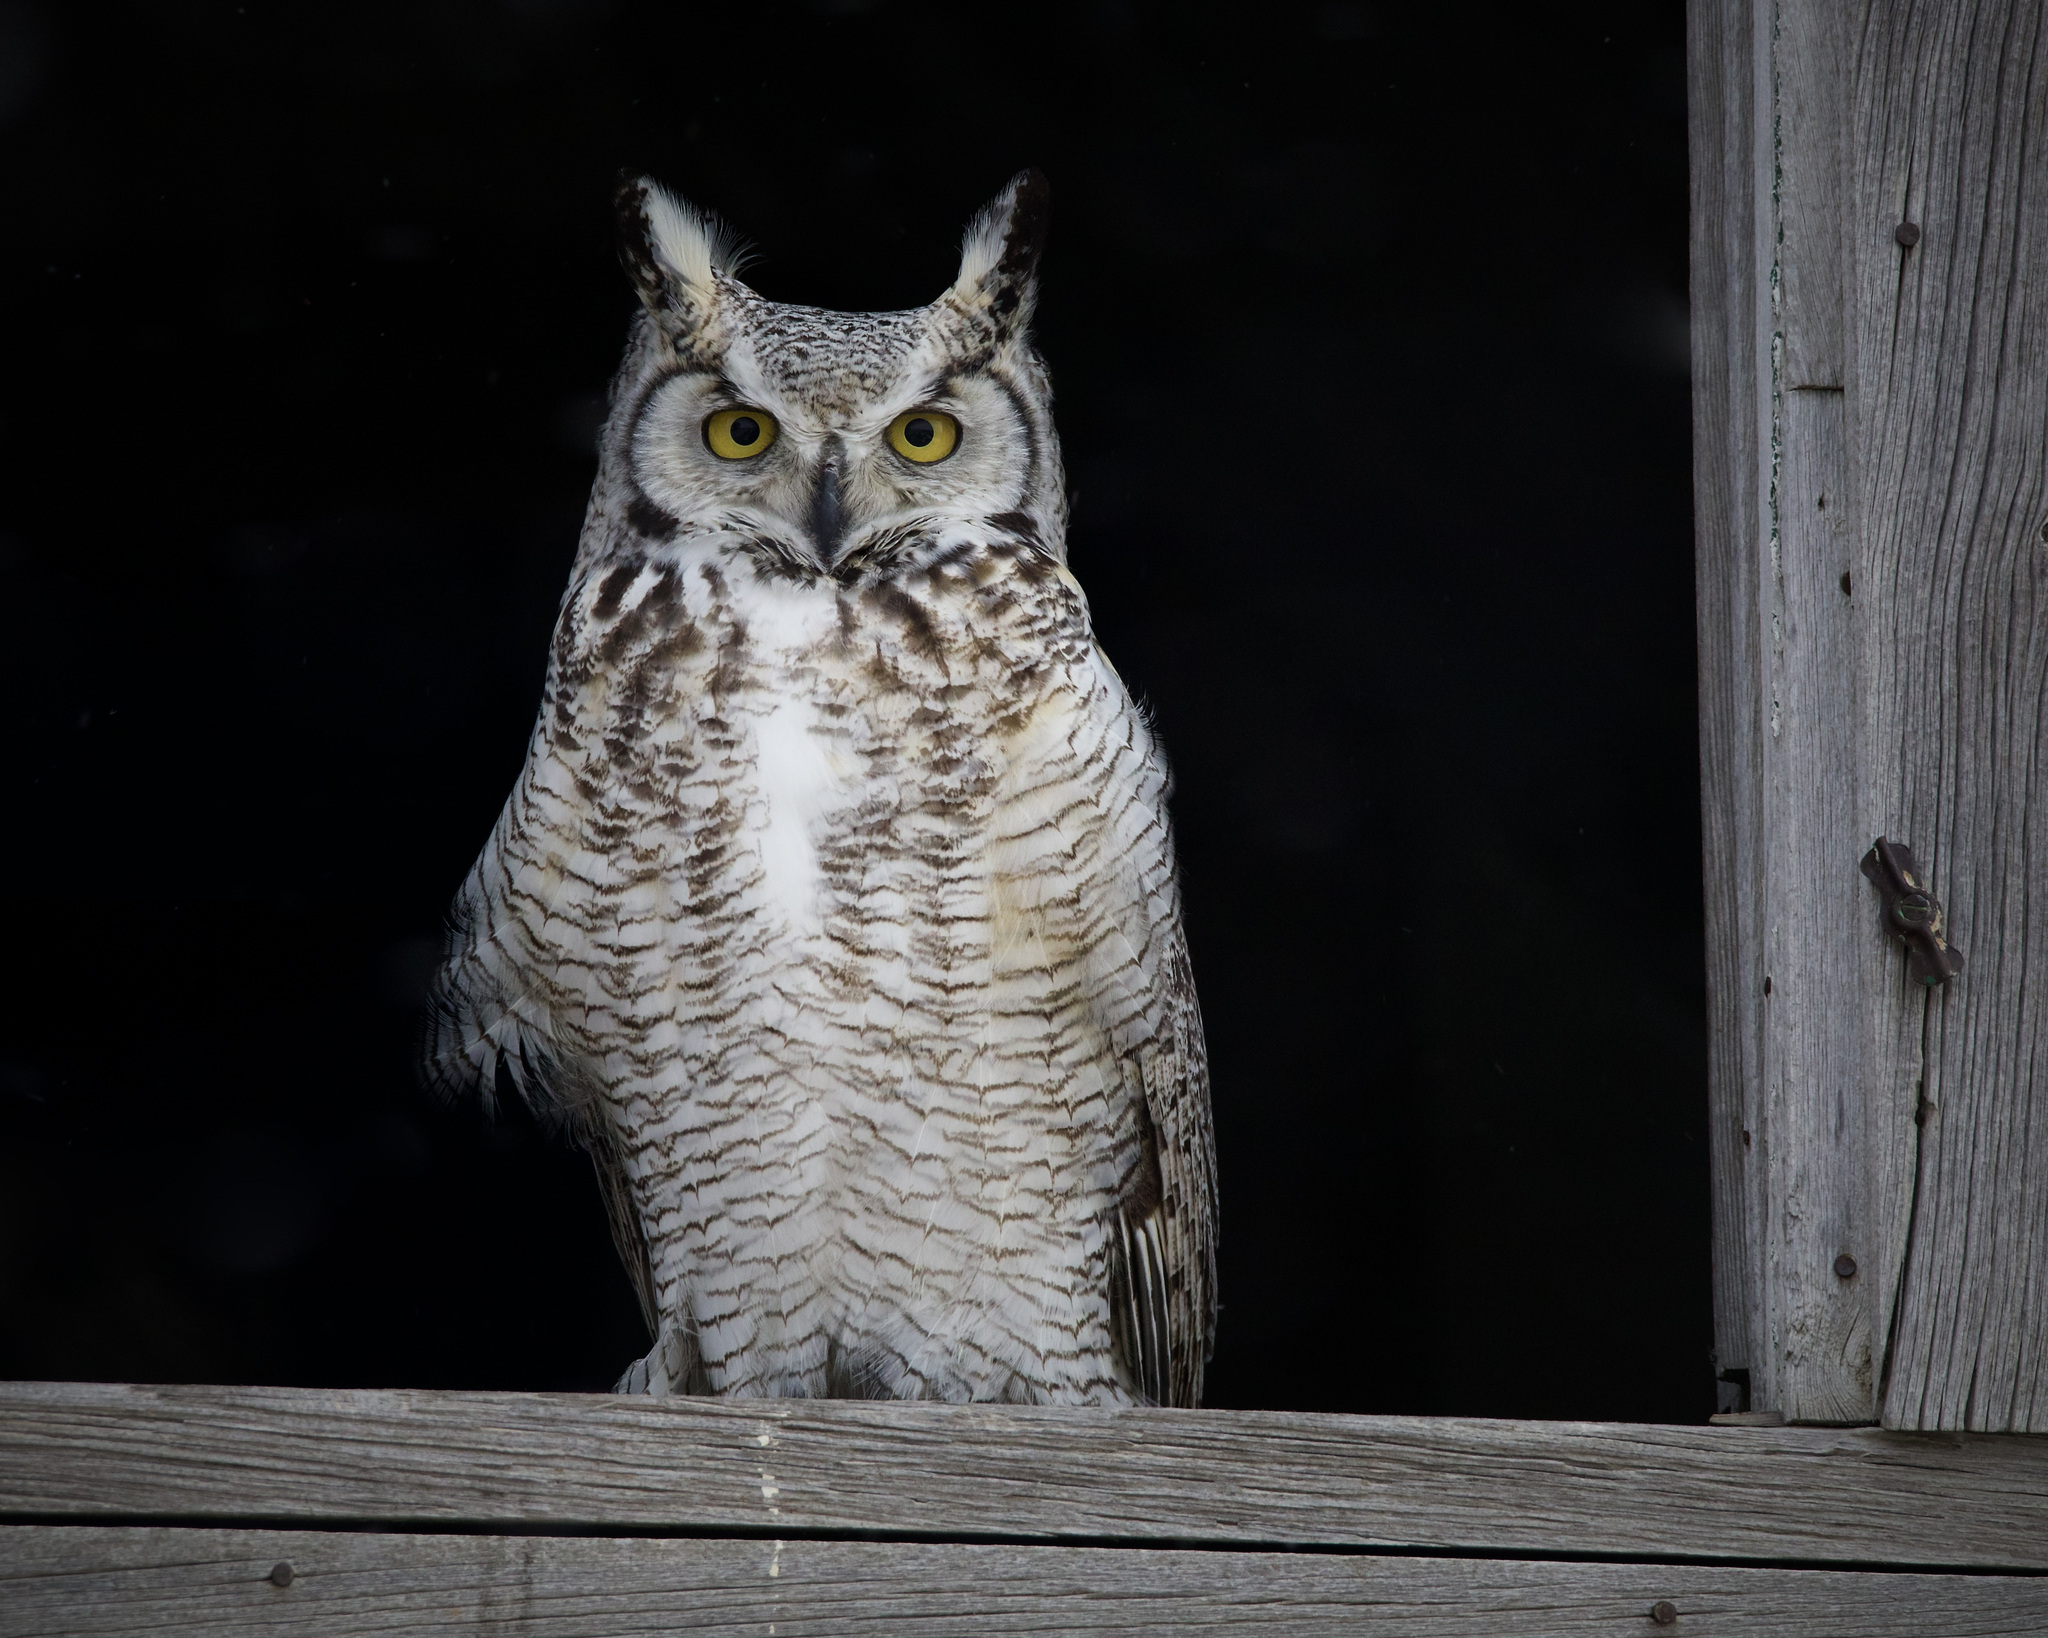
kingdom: Animalia
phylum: Chordata
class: Aves
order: Strigiformes
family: Strigidae
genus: Bubo
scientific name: Bubo virginianus
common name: Great horned owl
